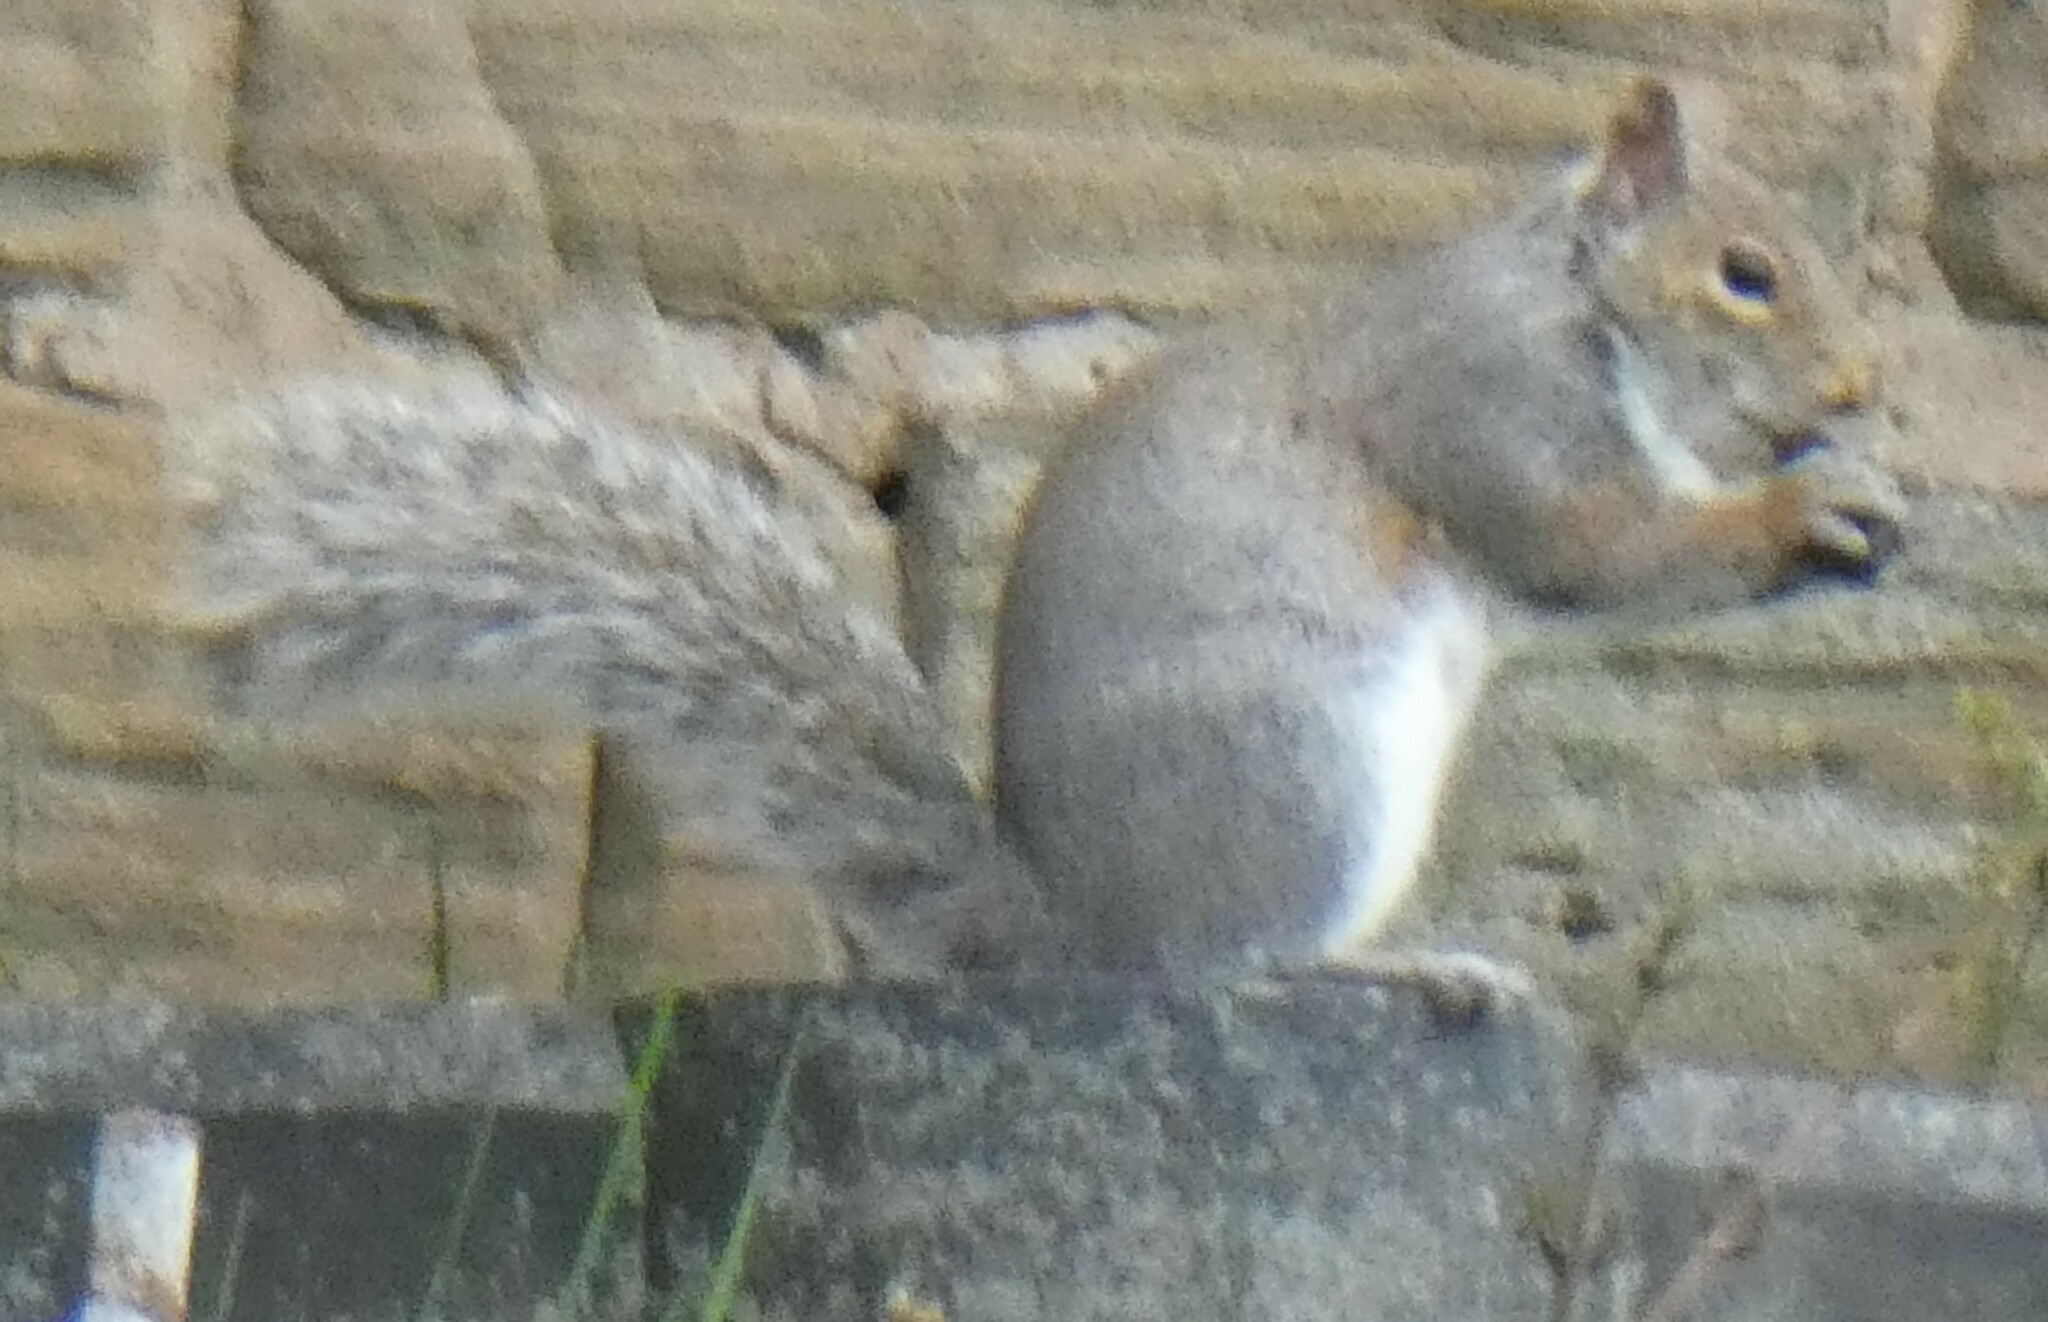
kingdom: Animalia
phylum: Chordata
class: Mammalia
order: Rodentia
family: Sciuridae
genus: Sciurus
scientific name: Sciurus carolinensis
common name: Eastern gray squirrel
